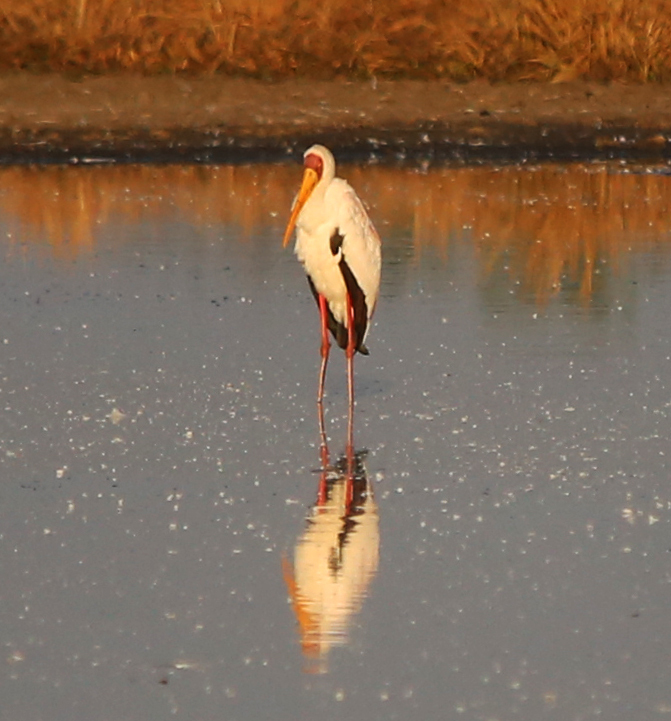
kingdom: Animalia
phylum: Chordata
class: Aves
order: Ciconiiformes
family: Ciconiidae
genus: Mycteria
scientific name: Mycteria ibis
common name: Yellow-billed stork
